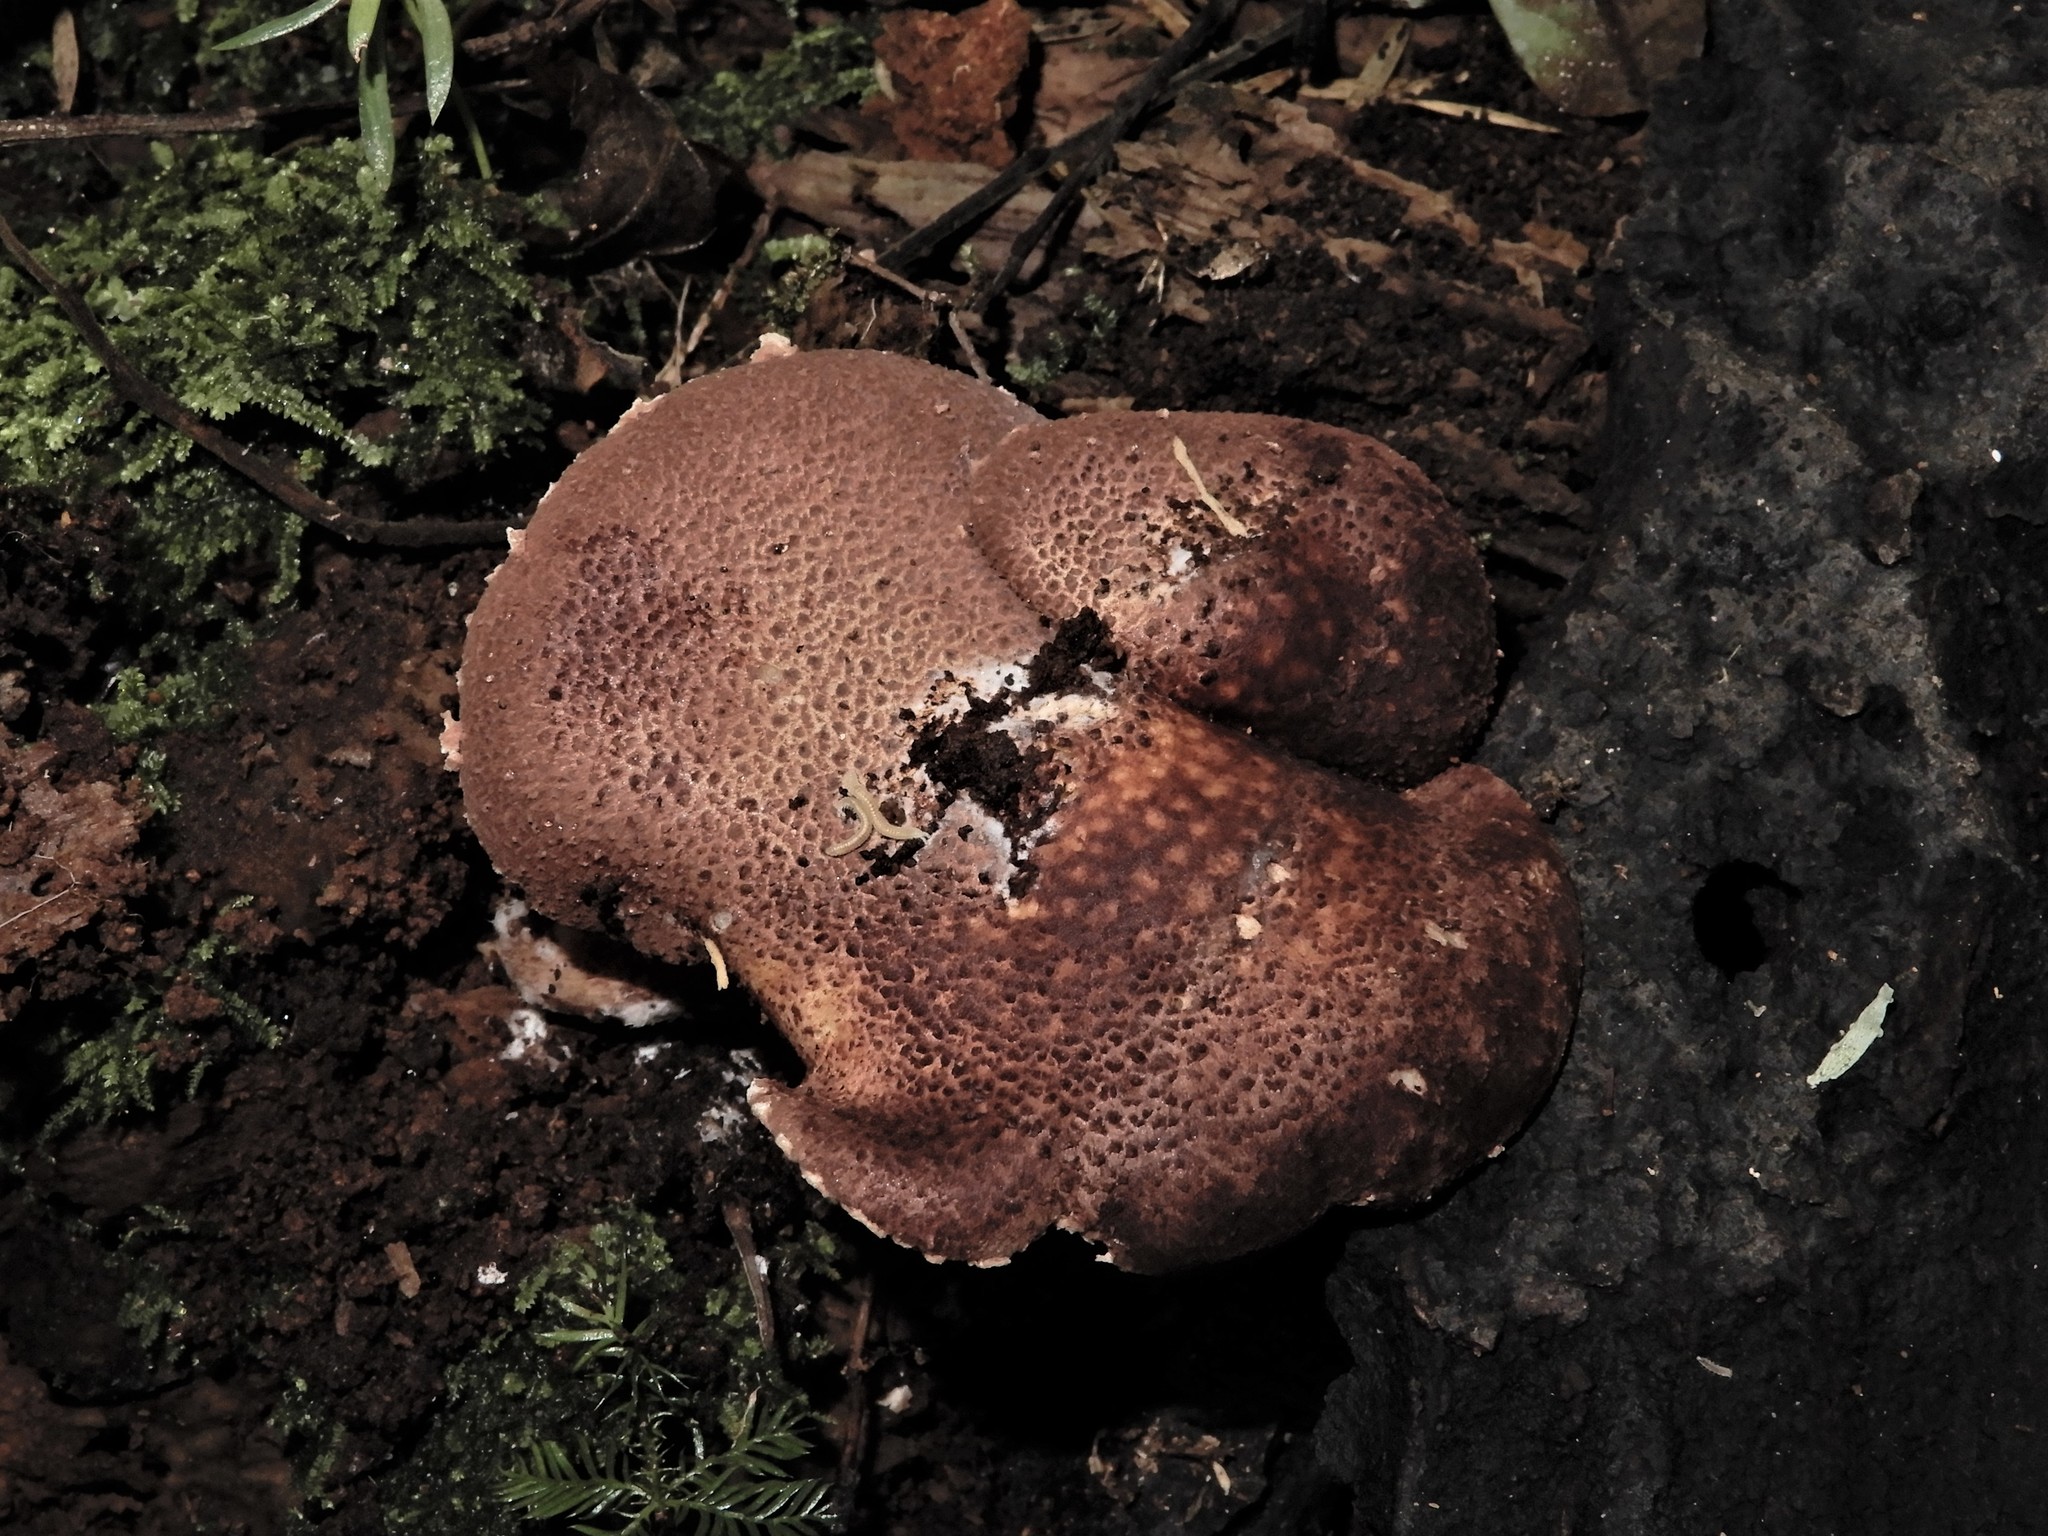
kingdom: Fungi
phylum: Basidiomycota
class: Agaricomycetes
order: Agaricales
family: Agaricaceae
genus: Ripartitella
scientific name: Ripartitella
